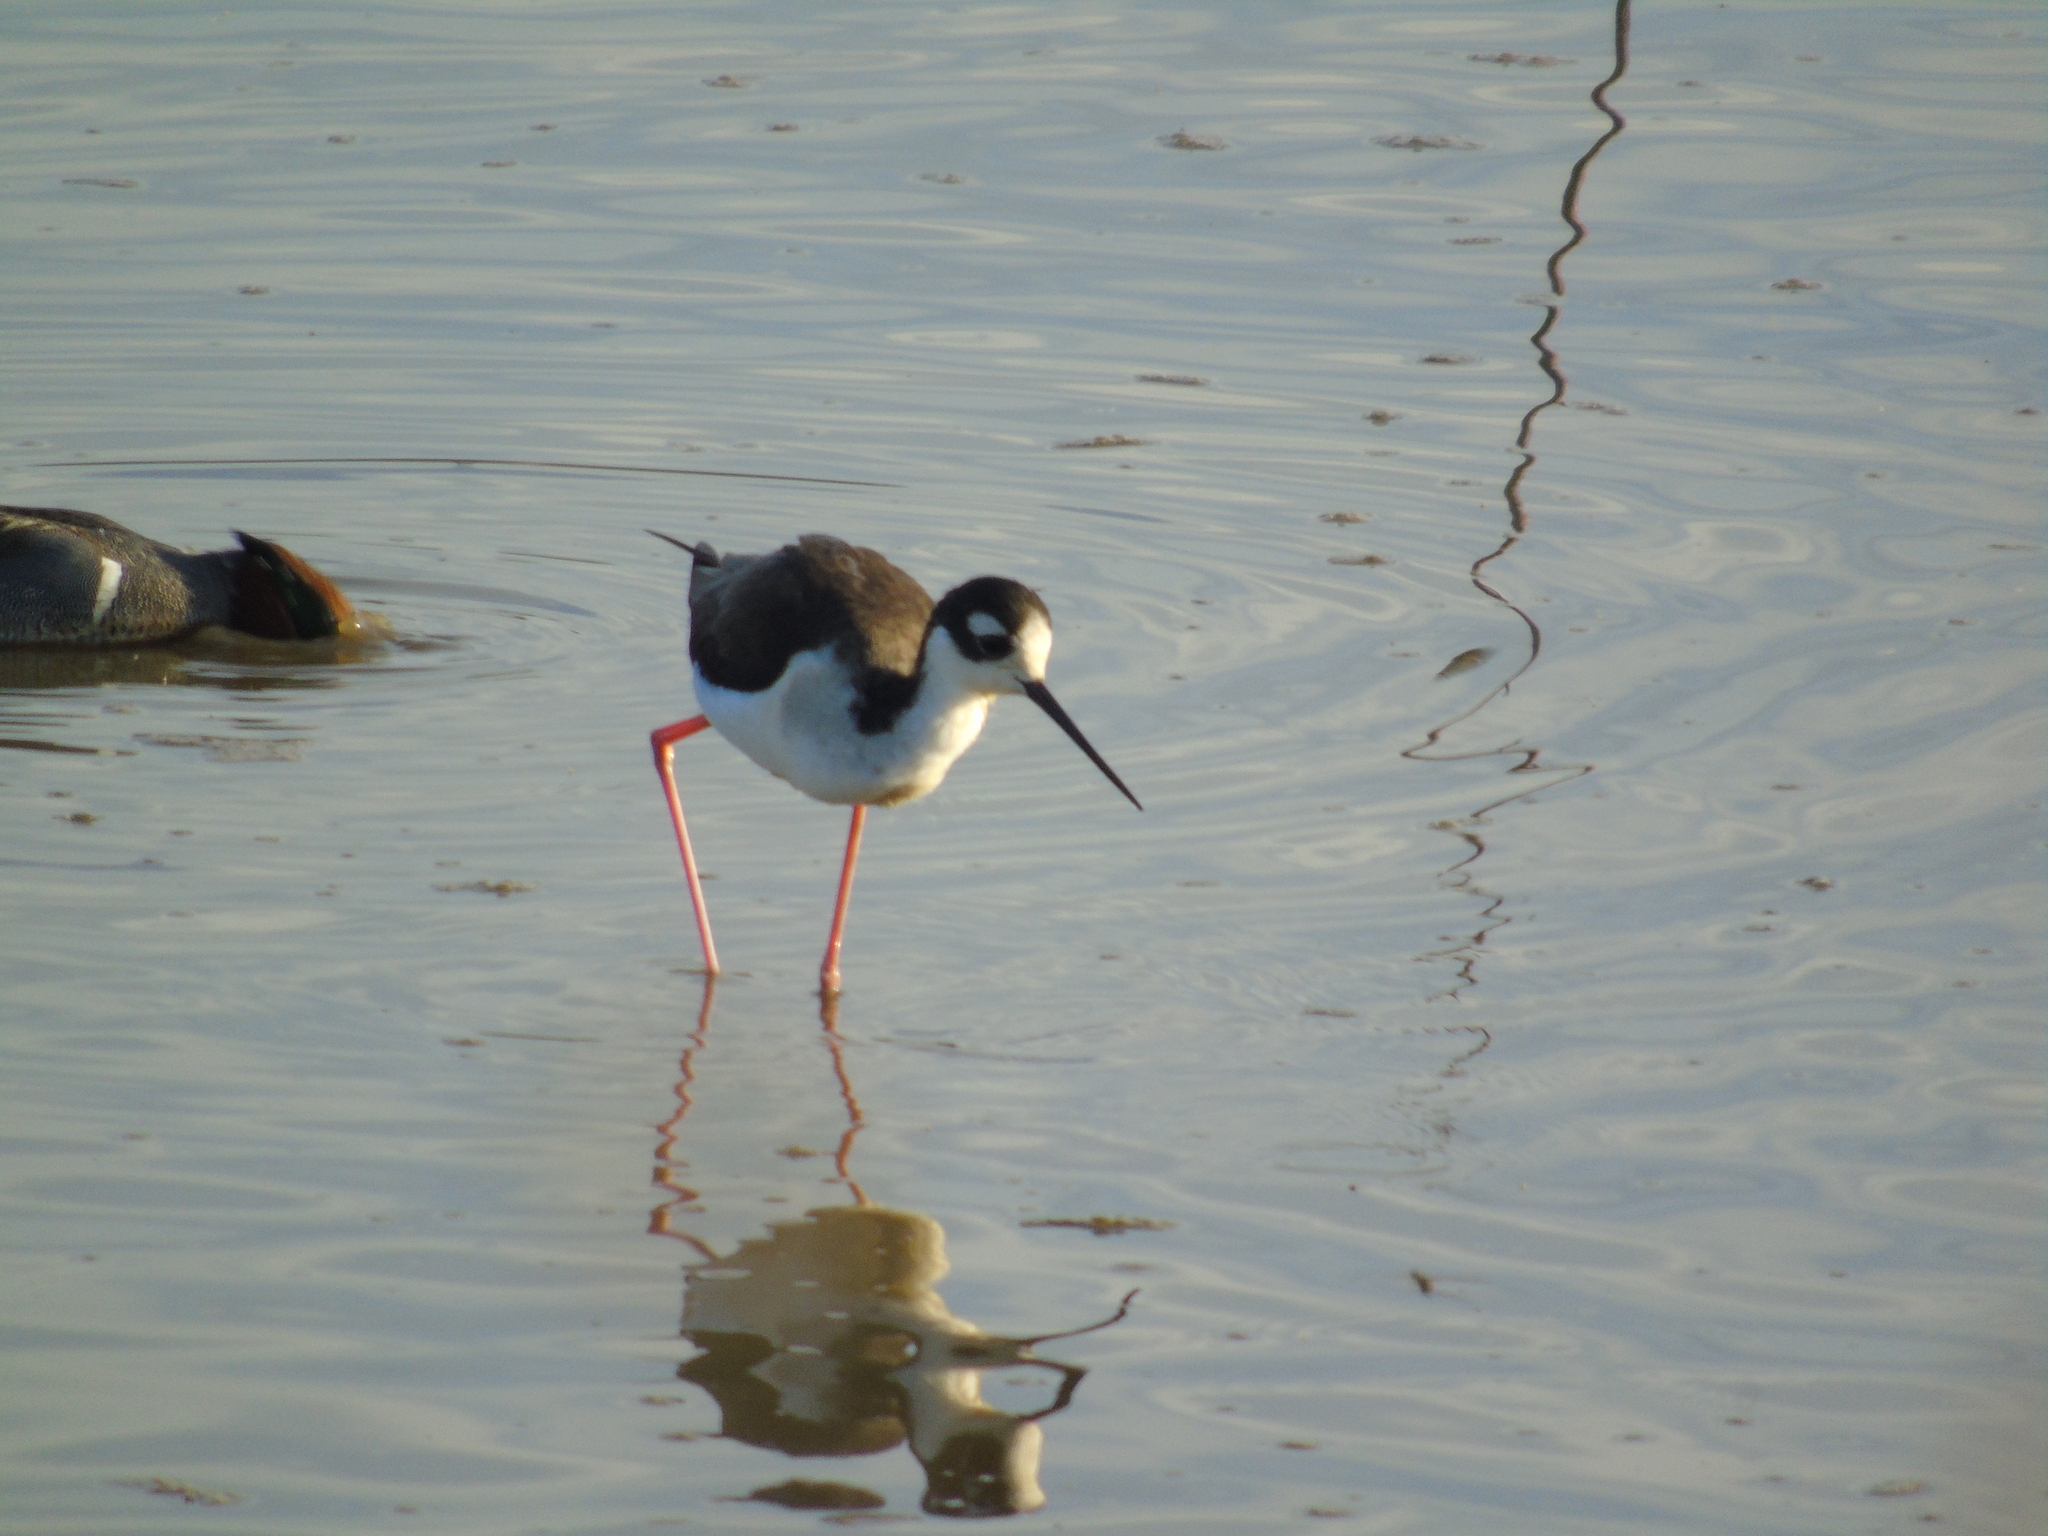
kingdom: Animalia
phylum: Chordata
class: Aves
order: Charadriiformes
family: Recurvirostridae
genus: Himantopus
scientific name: Himantopus mexicanus
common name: Black-necked stilt
